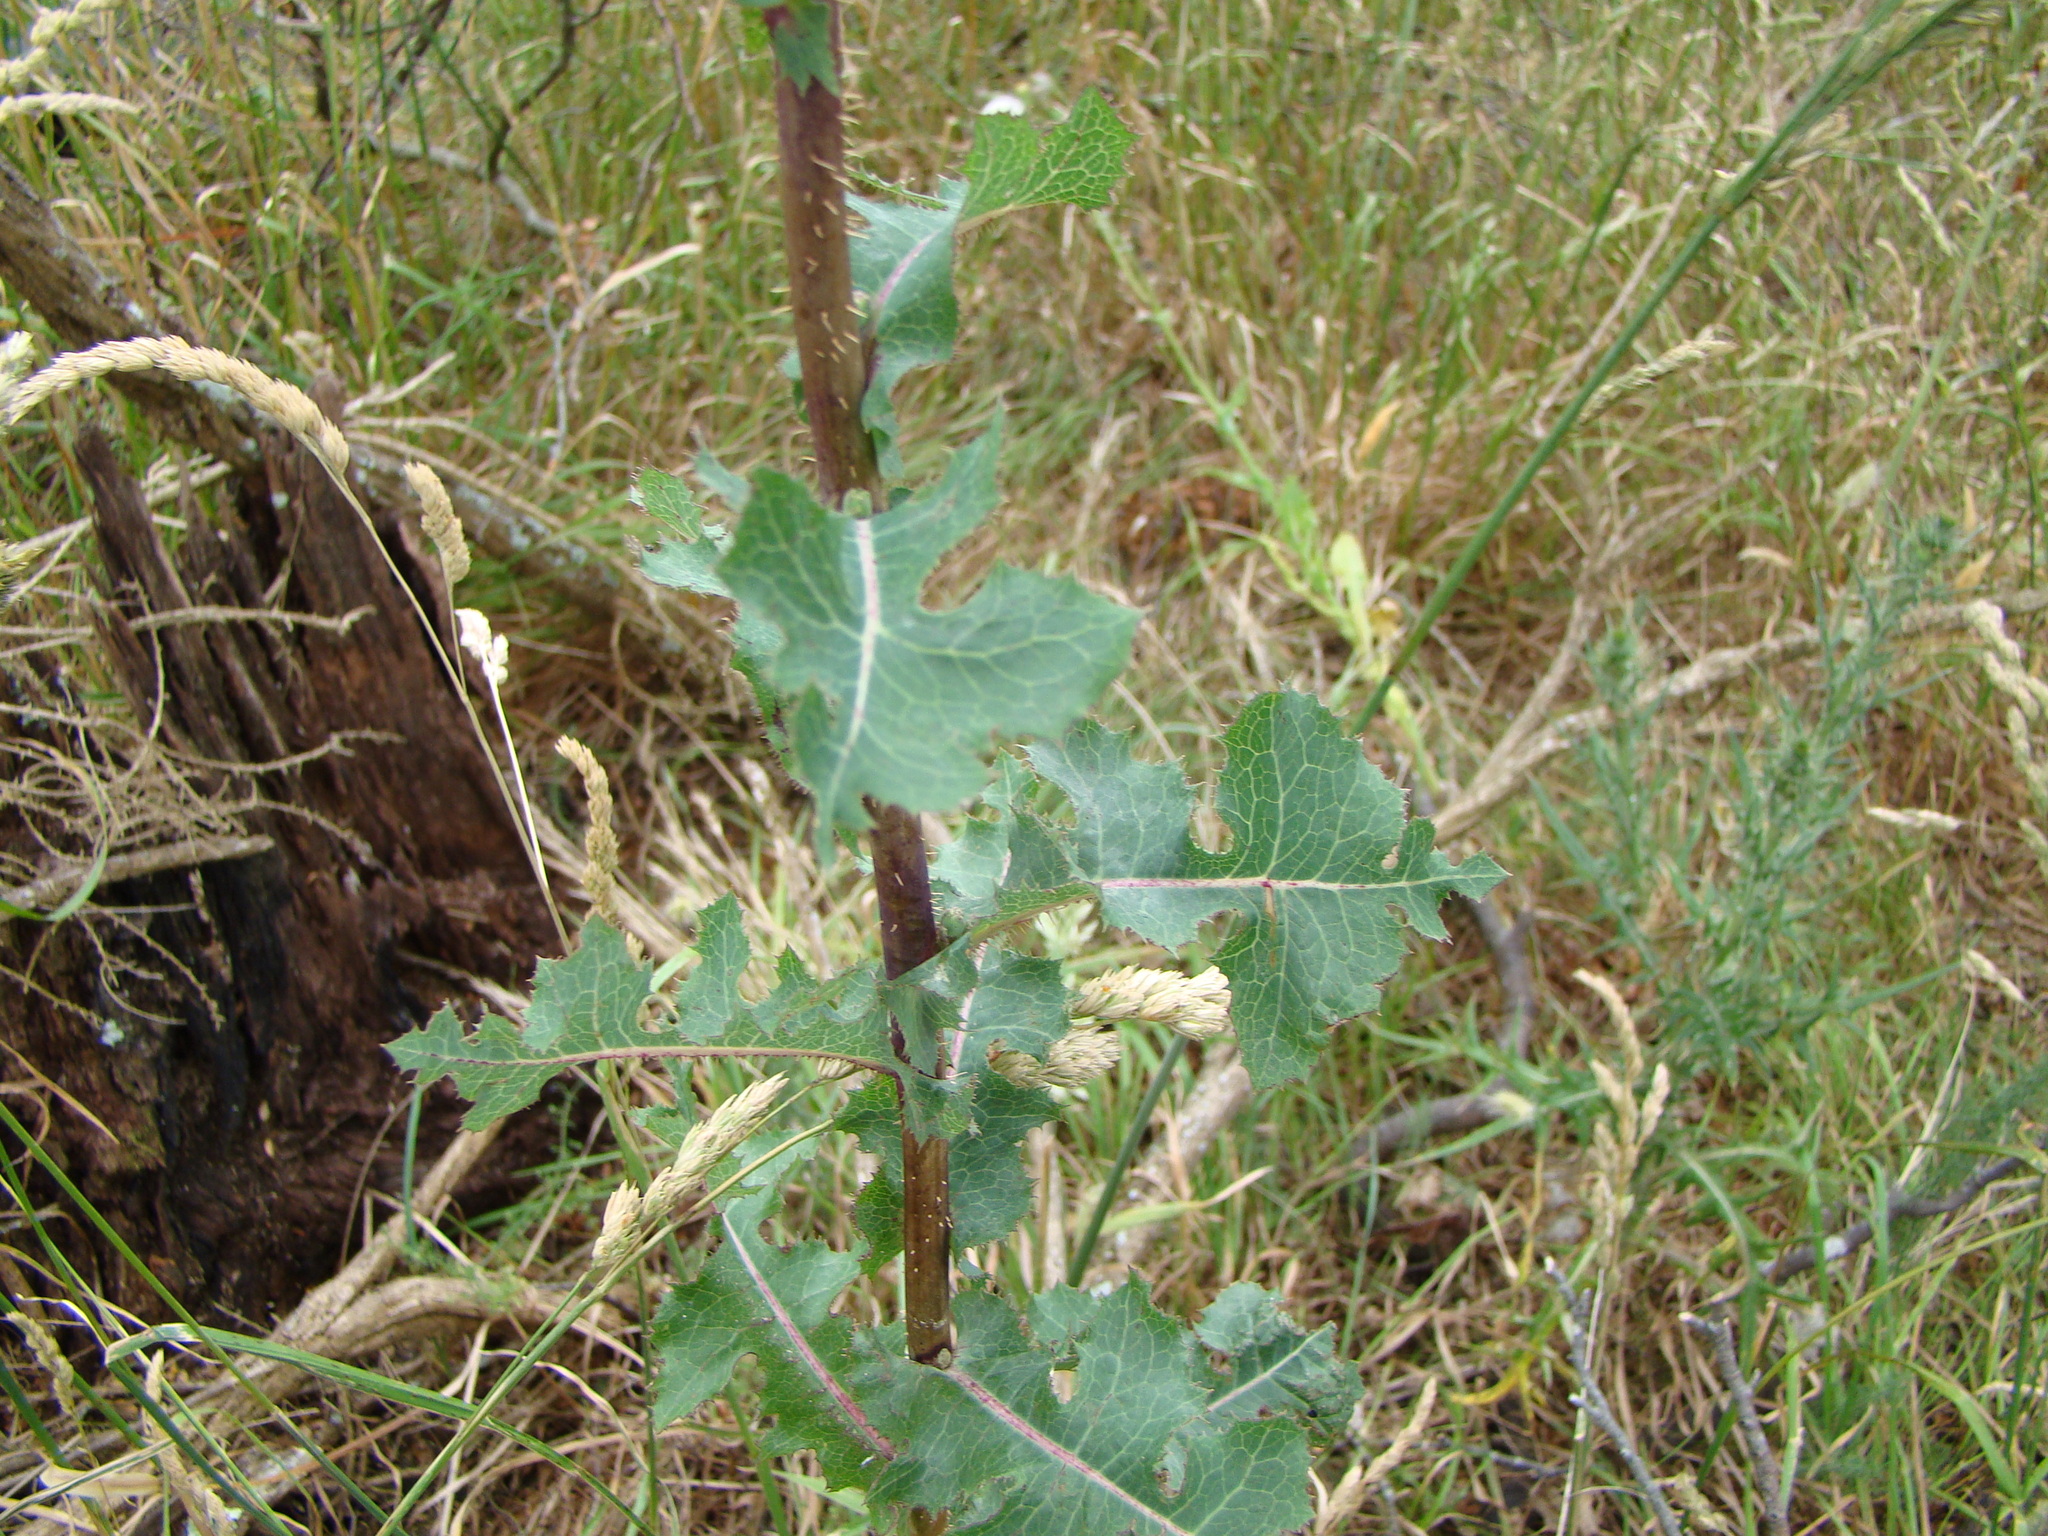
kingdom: Plantae
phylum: Tracheophyta
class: Magnoliopsida
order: Asterales
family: Asteraceae
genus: Lactuca
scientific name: Lactuca serriola
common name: Prickly lettuce
